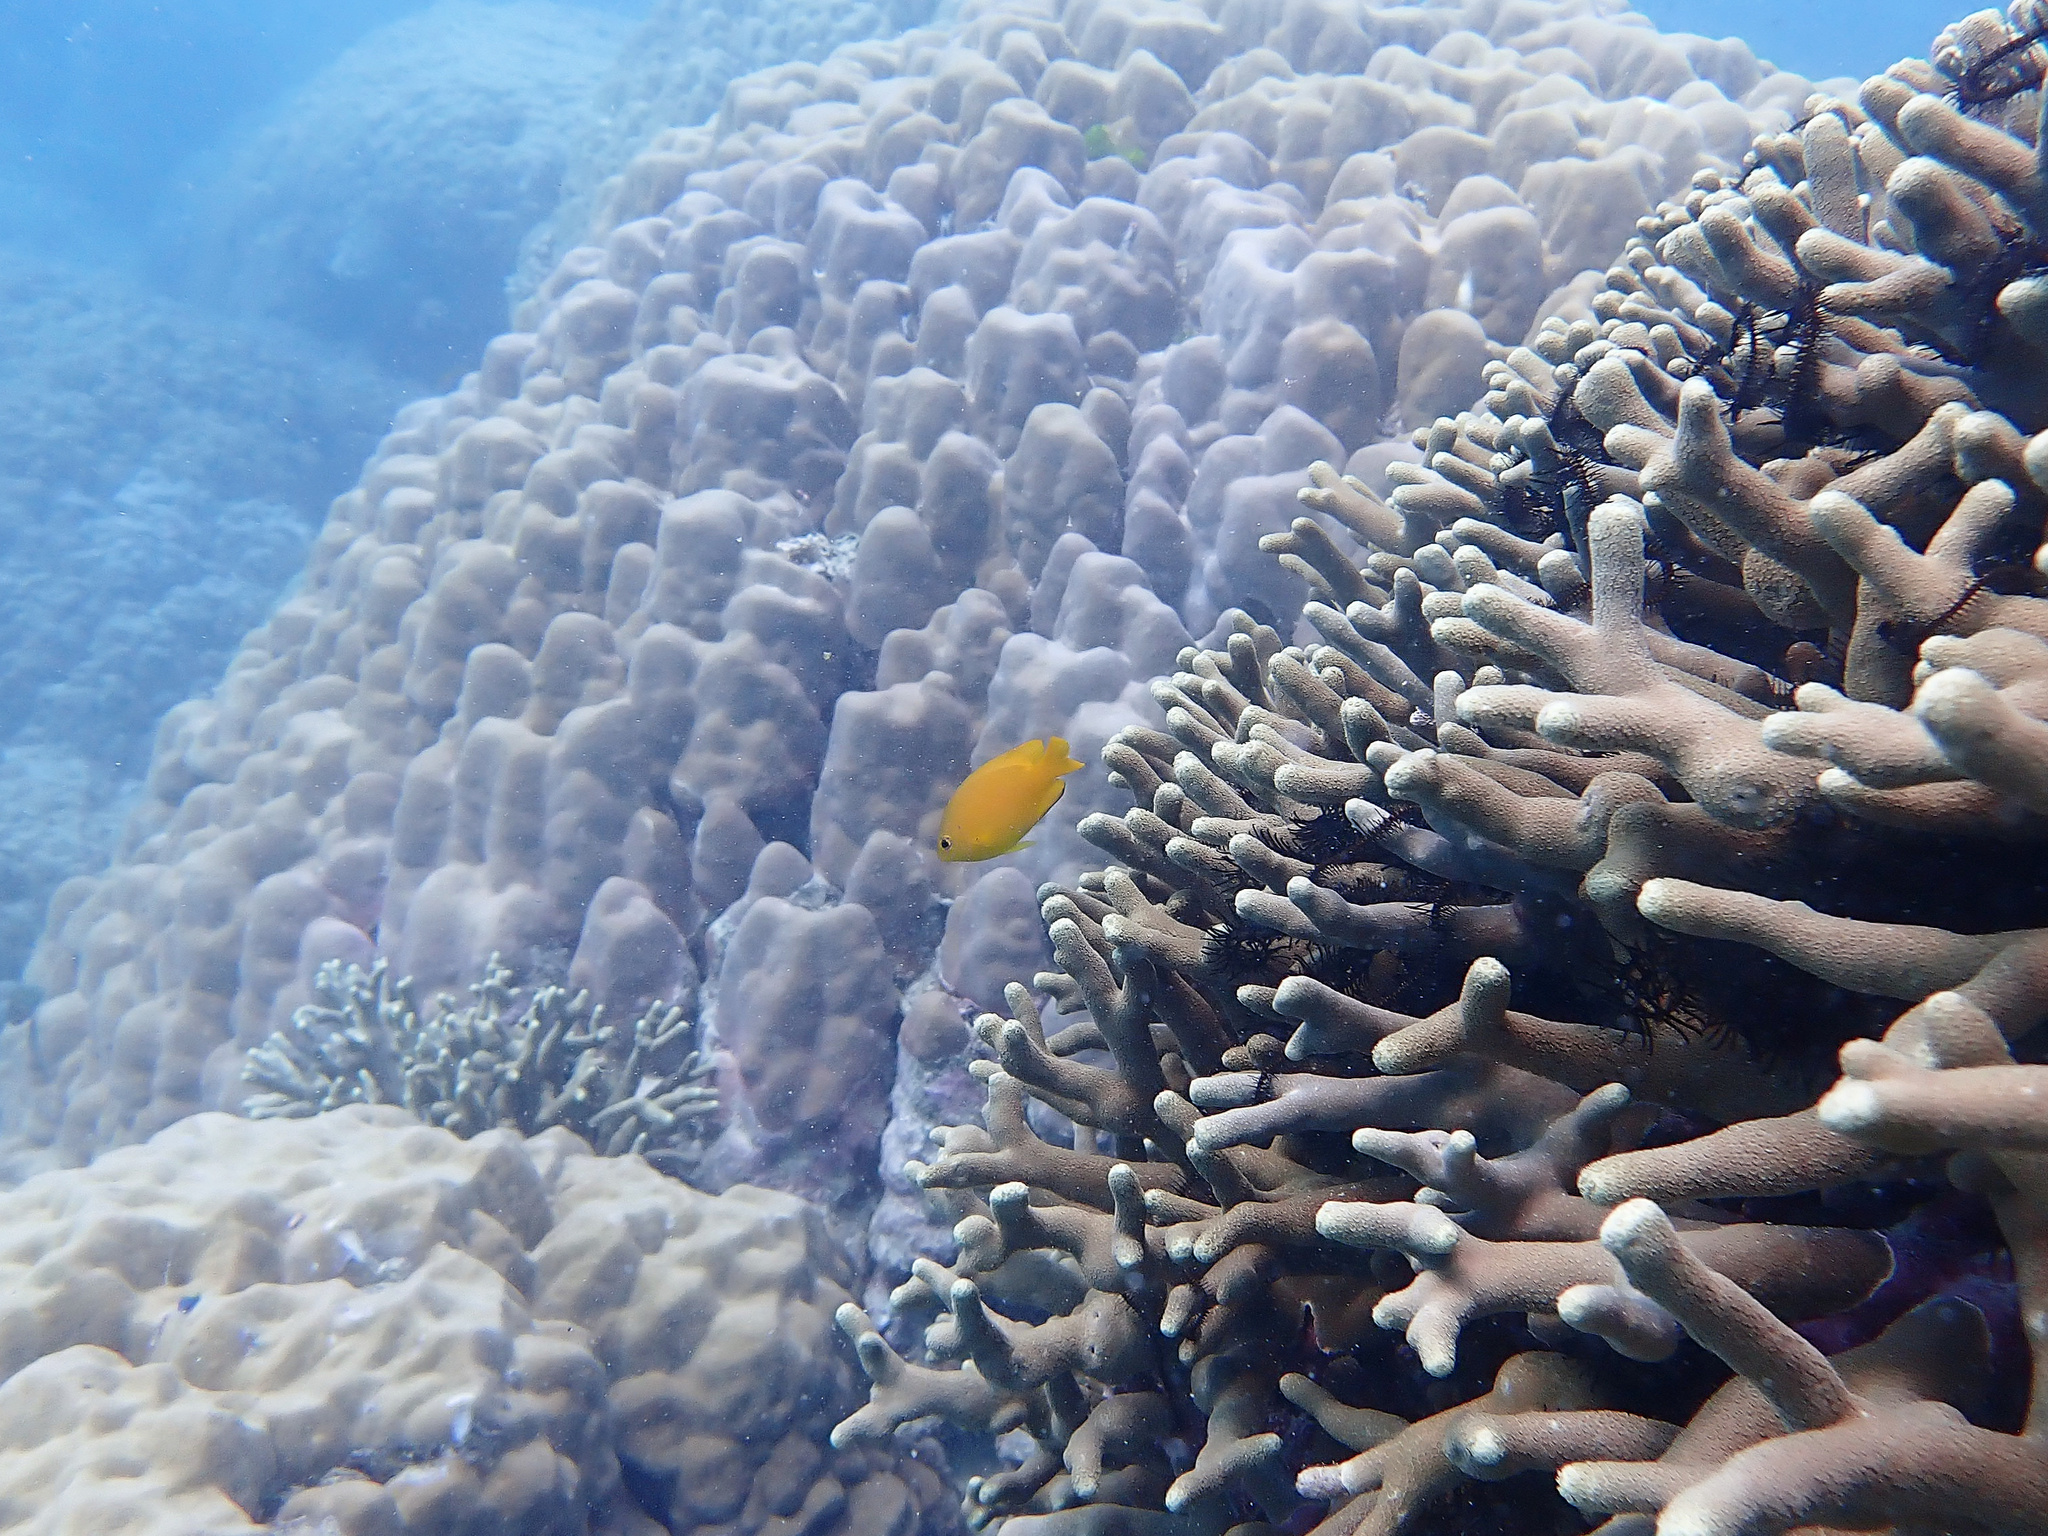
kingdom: Animalia
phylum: Chordata
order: Perciformes
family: Pomacentridae
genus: Pomacentrus
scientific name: Pomacentrus moluccensis
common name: Lemon damsel
